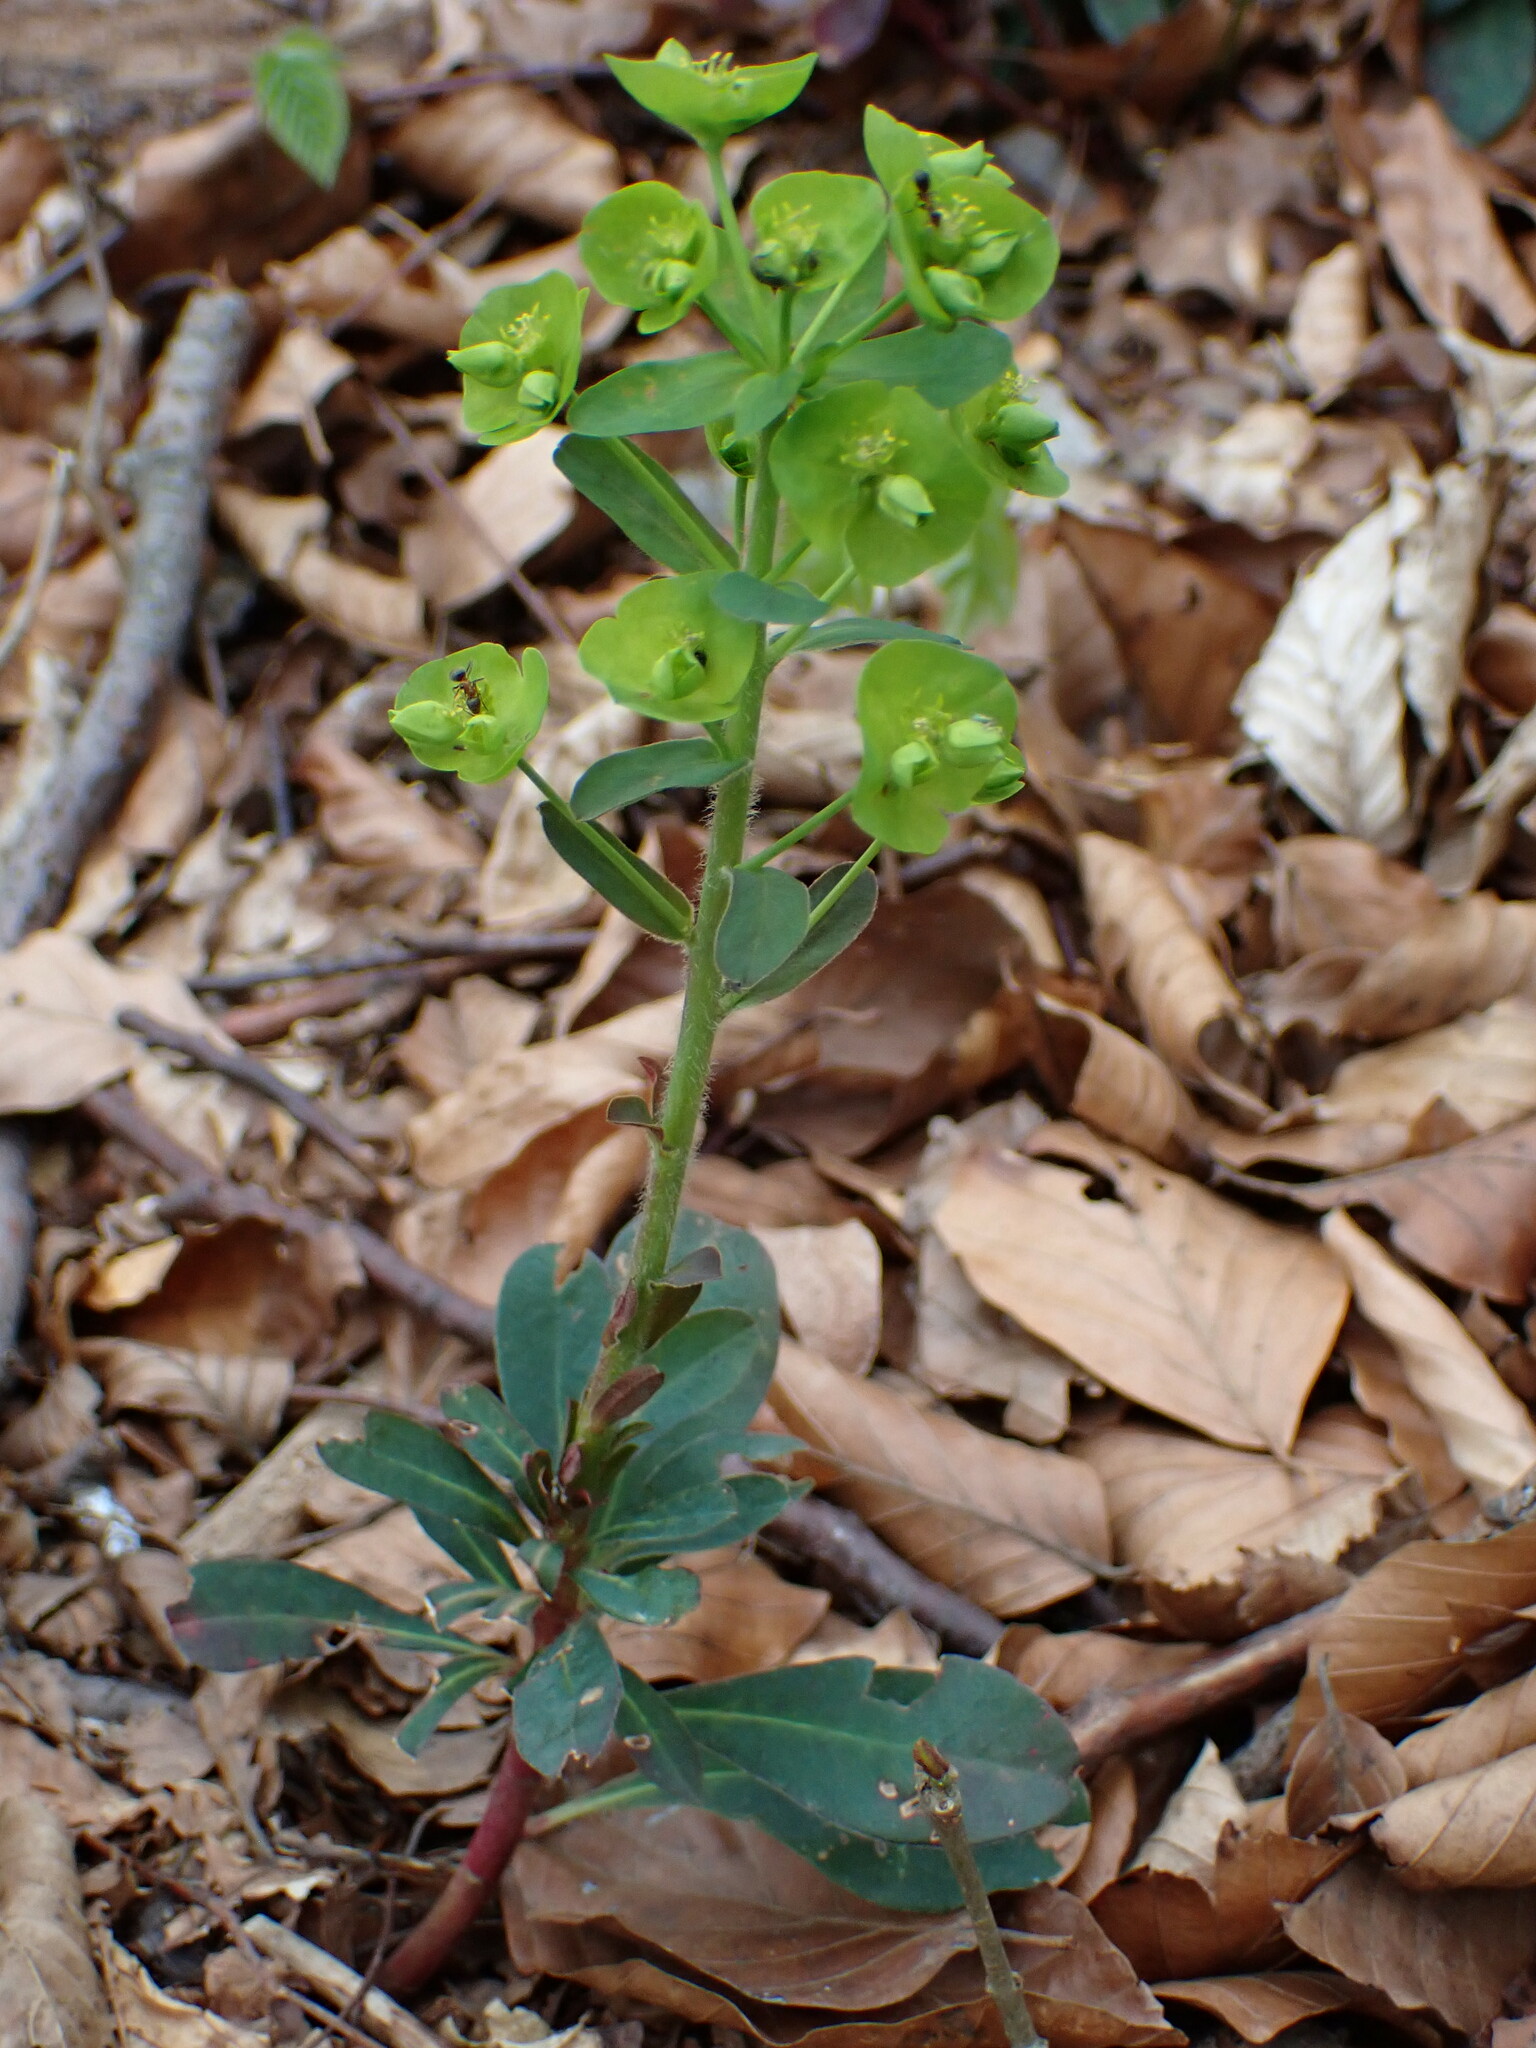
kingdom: Plantae
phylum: Tracheophyta
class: Magnoliopsida
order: Malpighiales
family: Euphorbiaceae
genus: Euphorbia
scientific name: Euphorbia amygdaloides
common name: Wood spurge
